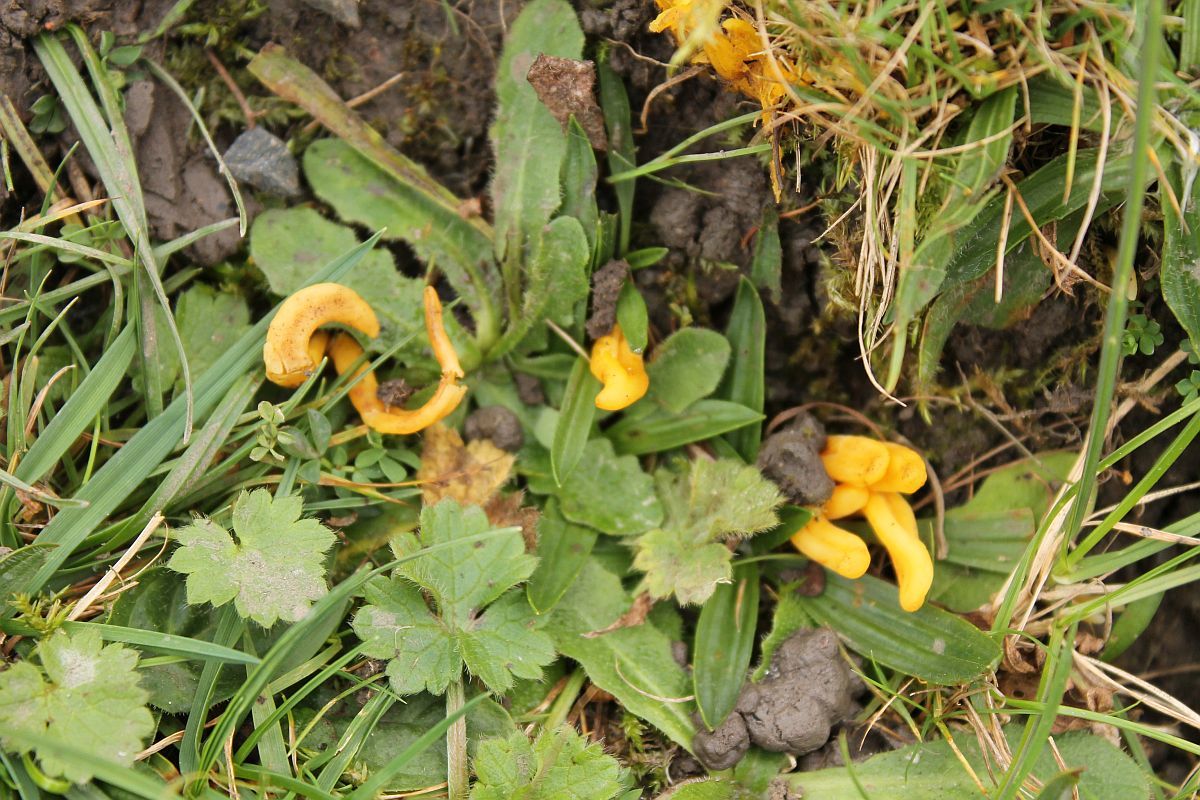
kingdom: Fungi
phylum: Basidiomycota
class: Agaricomycetes
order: Agaricales
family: Clavariaceae
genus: Clavulinopsis
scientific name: Clavulinopsis fusiformis
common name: Golden spindles
